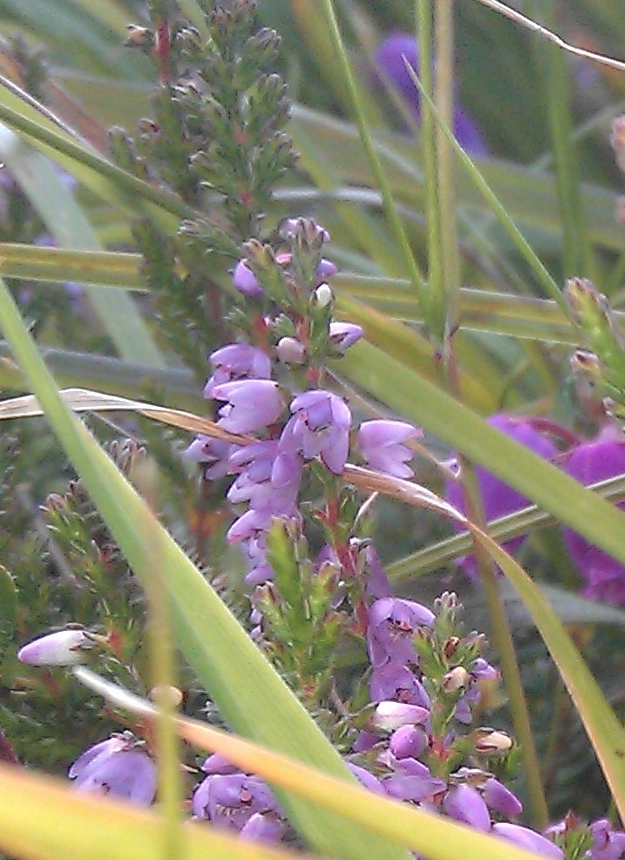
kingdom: Plantae
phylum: Tracheophyta
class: Magnoliopsida
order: Ericales
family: Ericaceae
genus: Calluna
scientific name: Calluna vulgaris
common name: Heather
